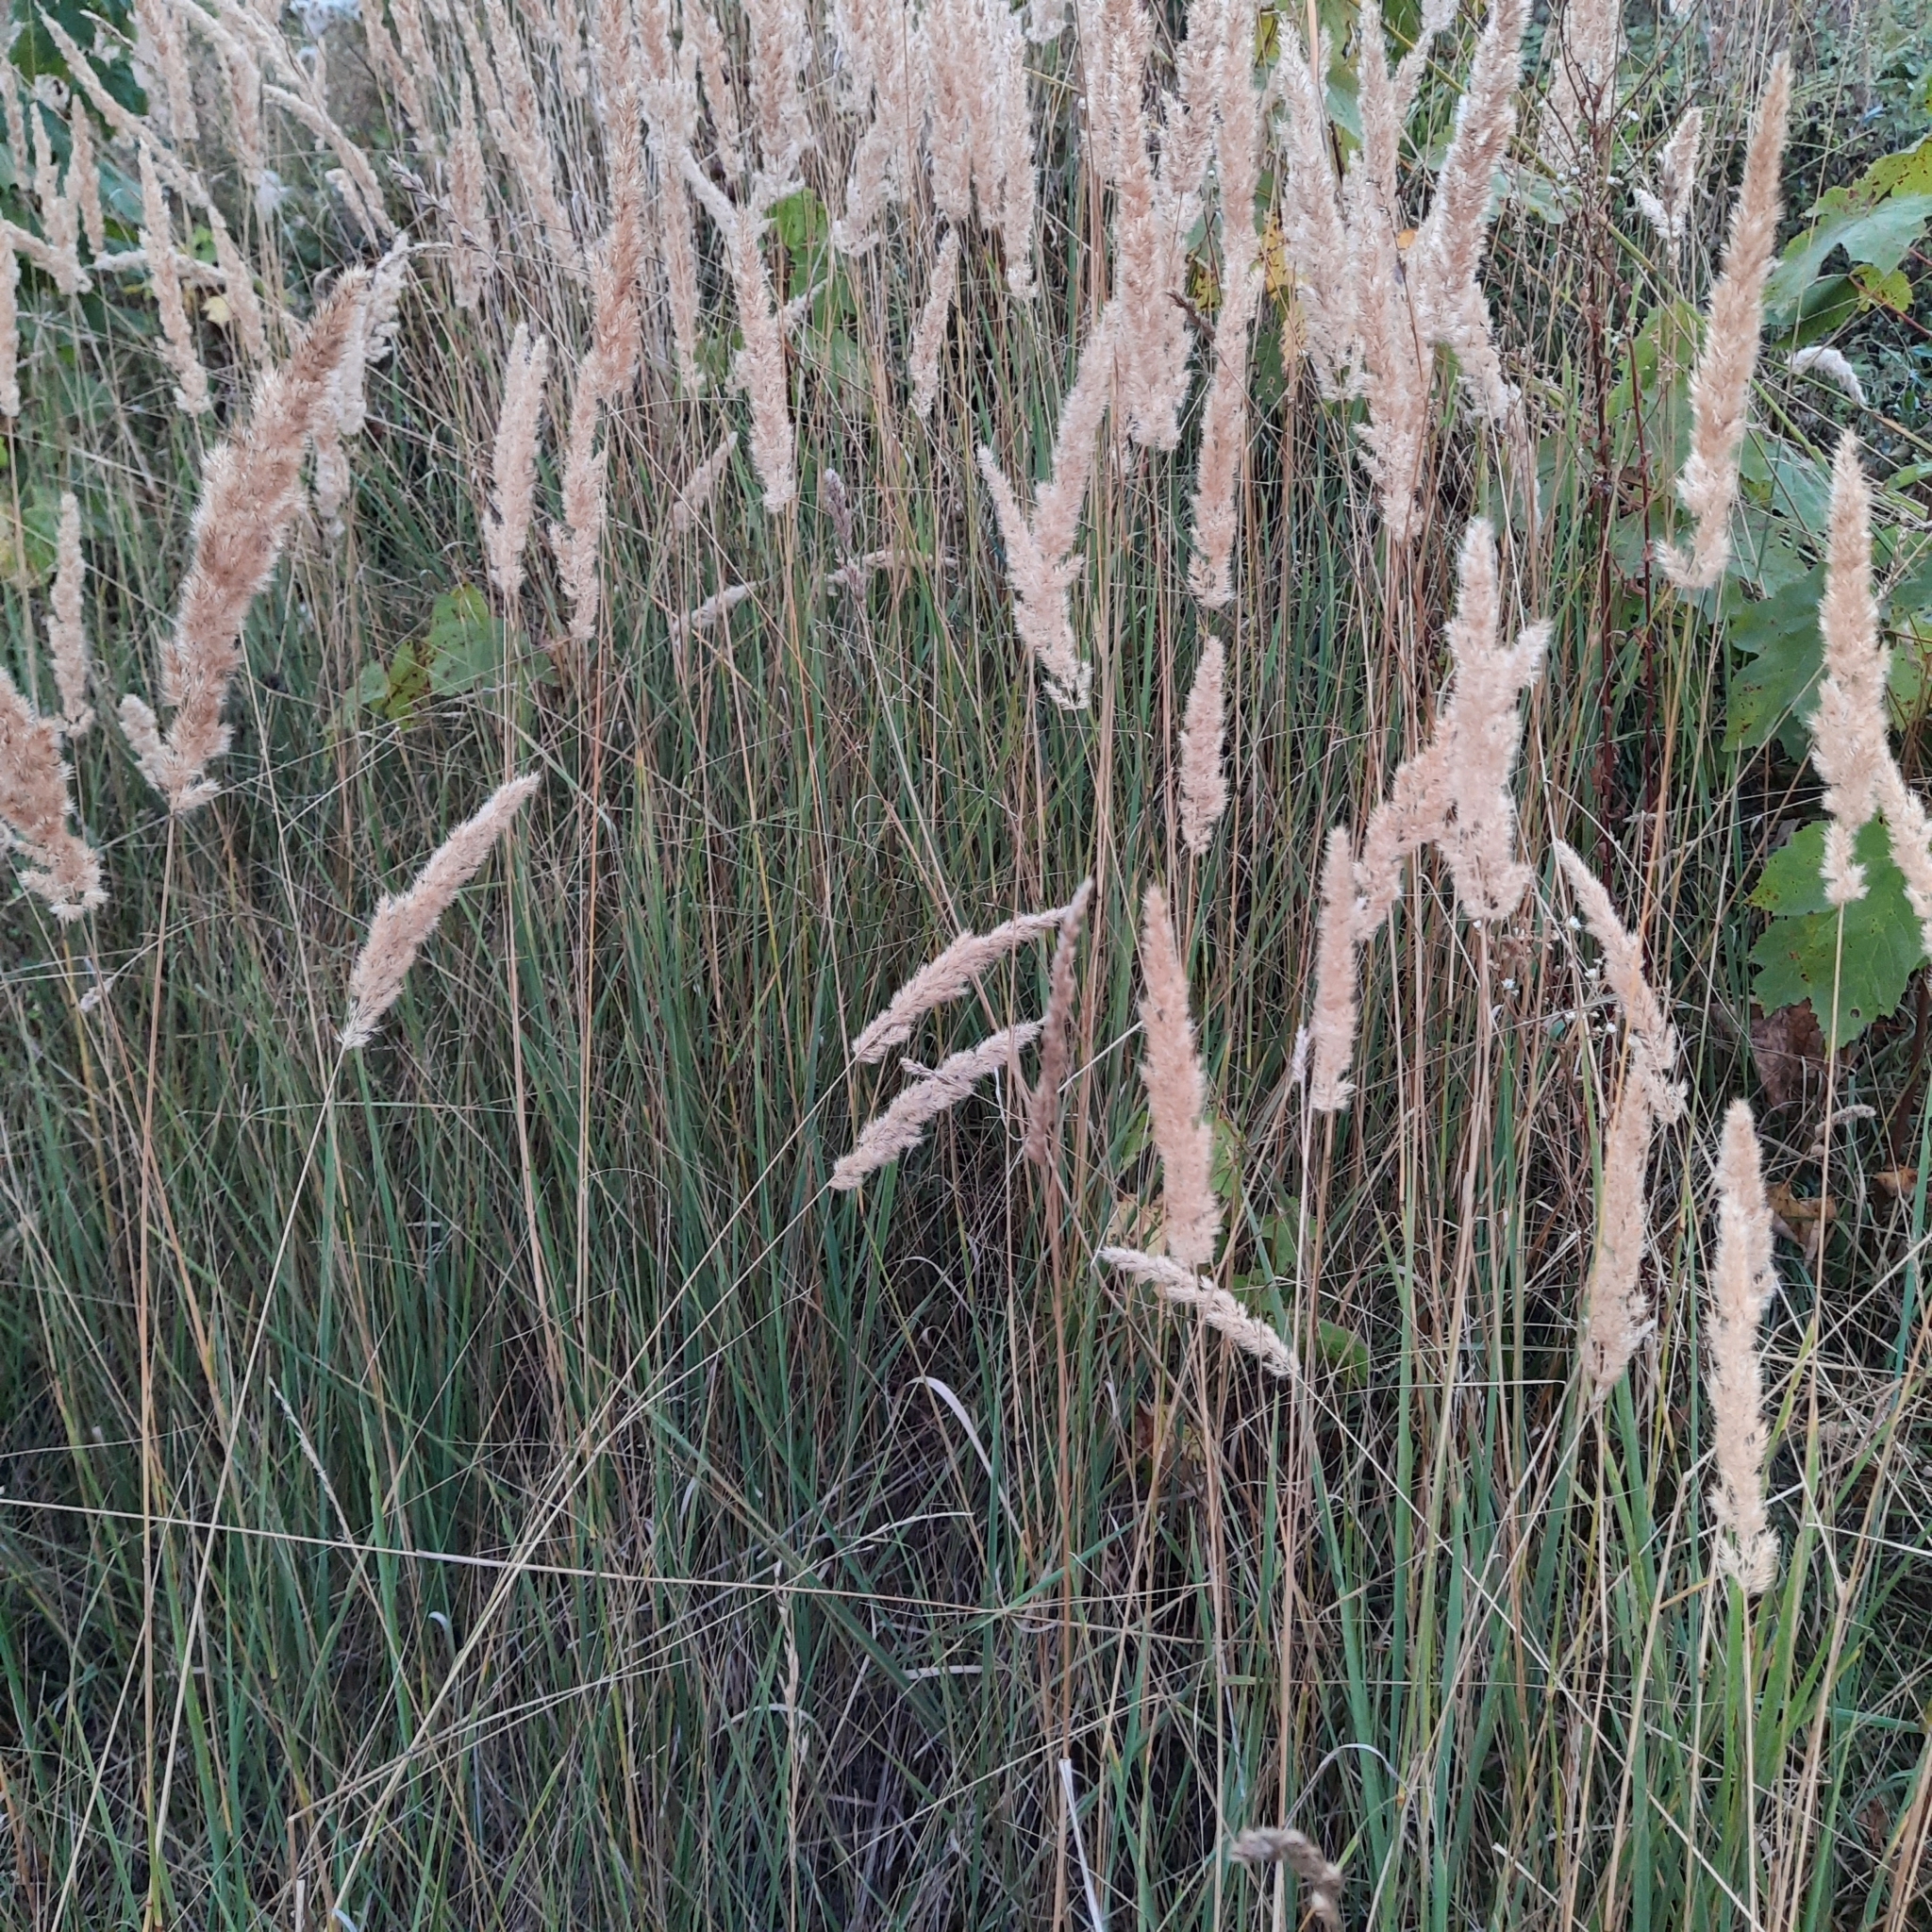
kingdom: Plantae
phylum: Tracheophyta
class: Liliopsida
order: Poales
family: Poaceae
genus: Calamagrostis
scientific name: Calamagrostis epigejos
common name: Wood small-reed
